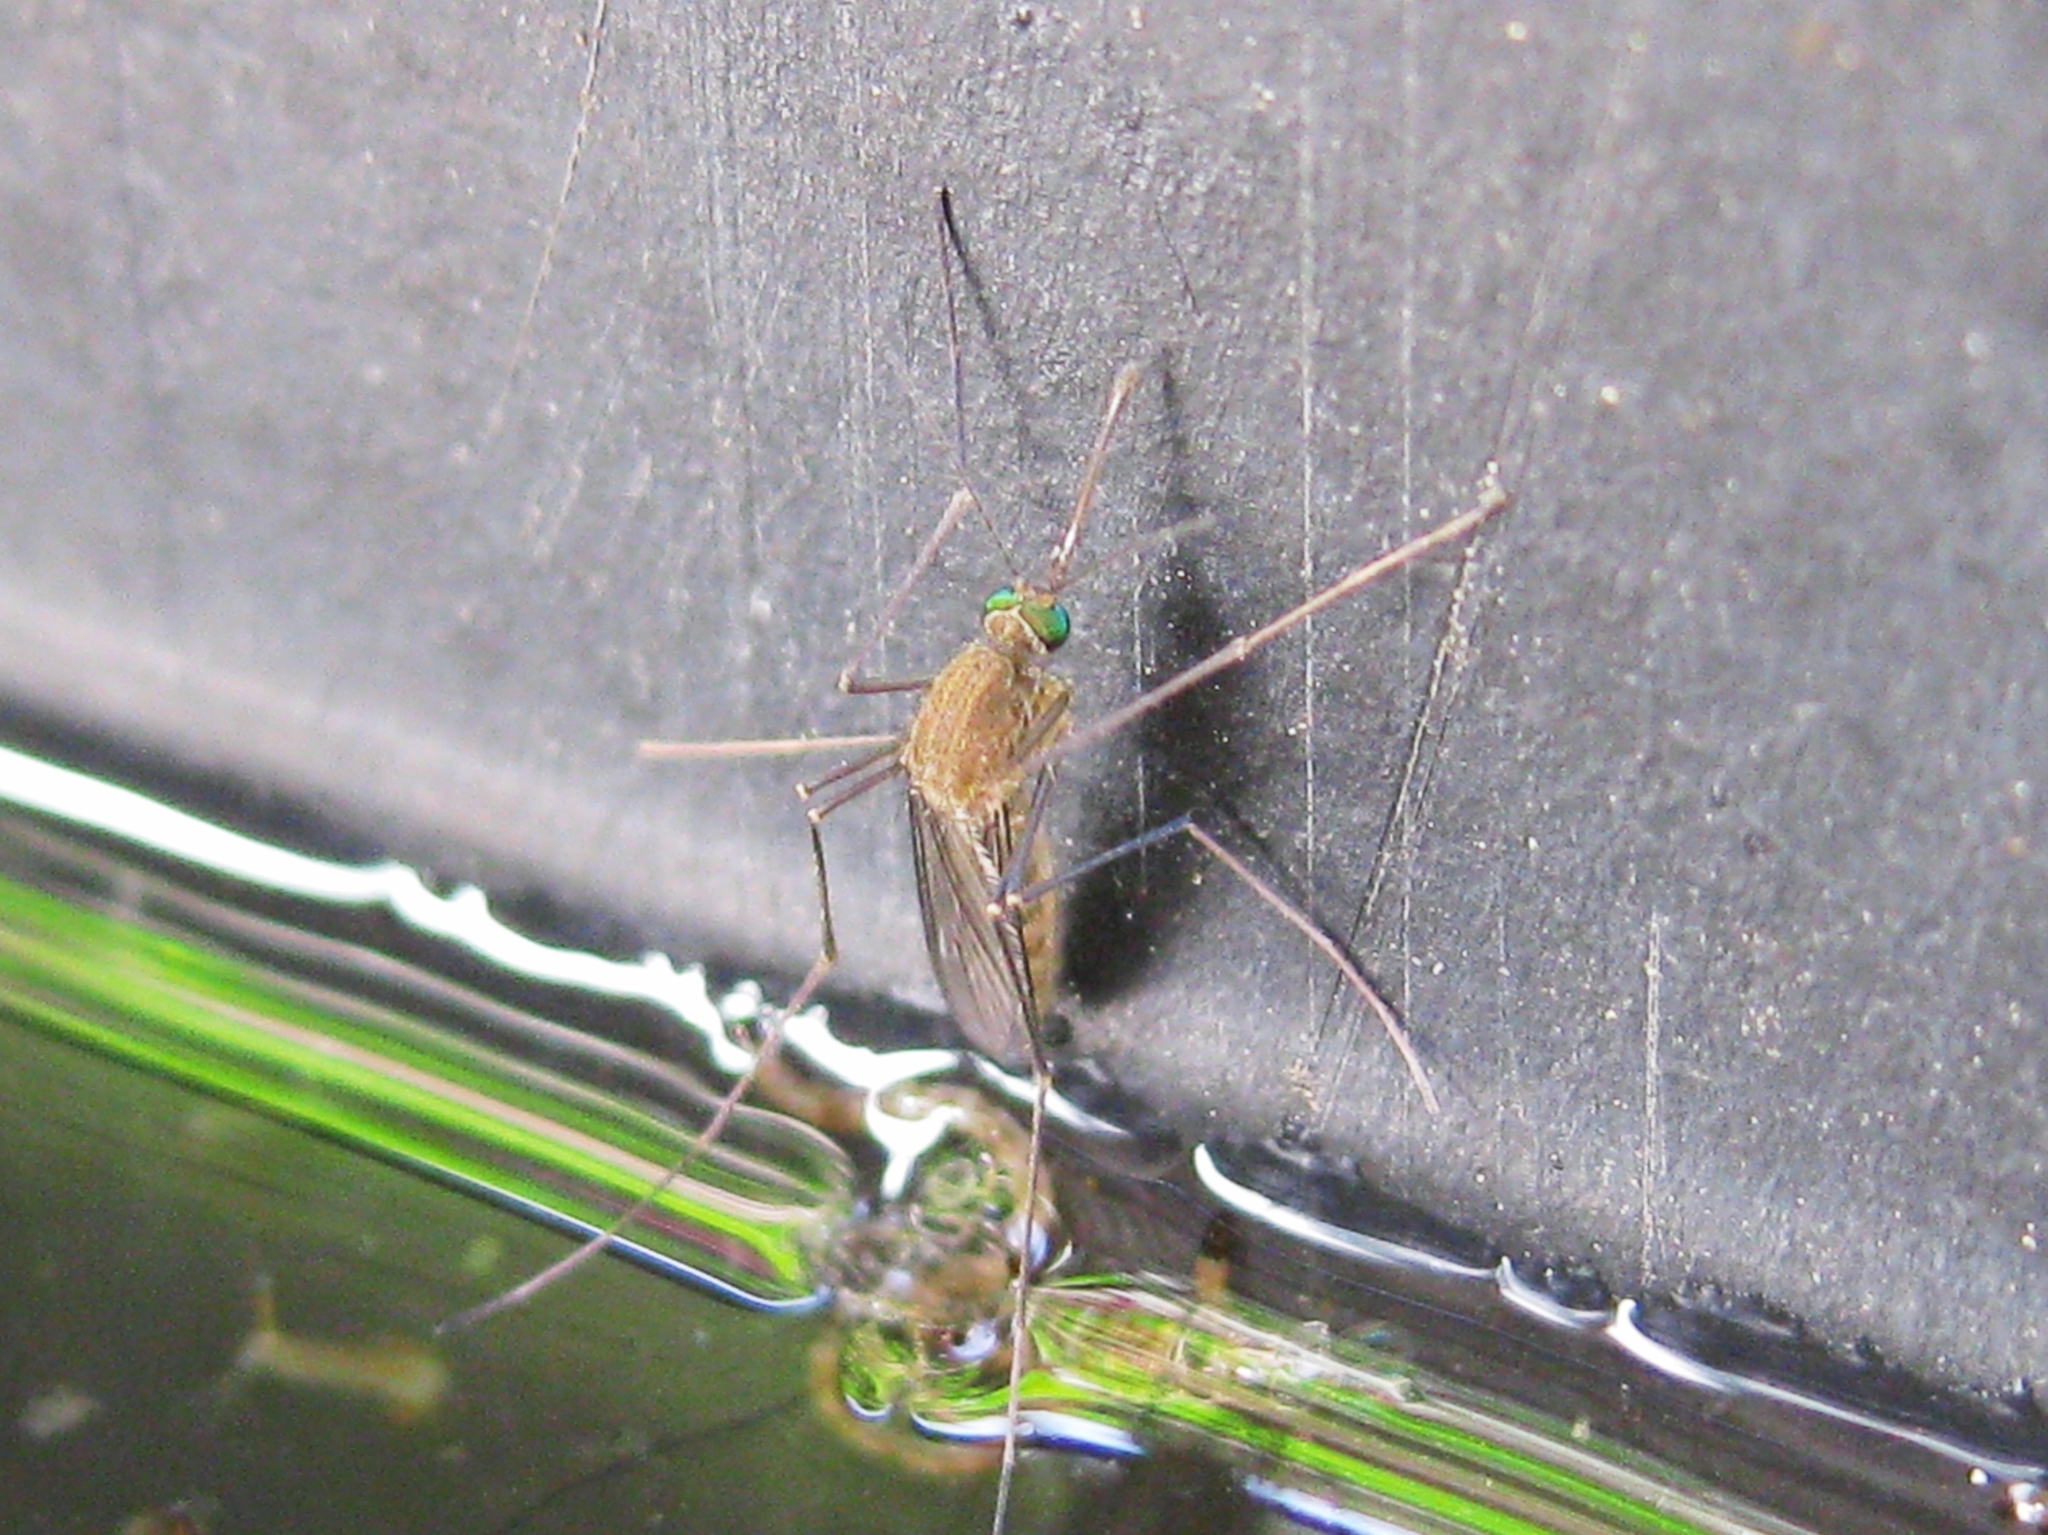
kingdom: Animalia
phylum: Arthropoda
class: Insecta
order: Diptera
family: Culicidae
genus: Culex
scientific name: Culex
